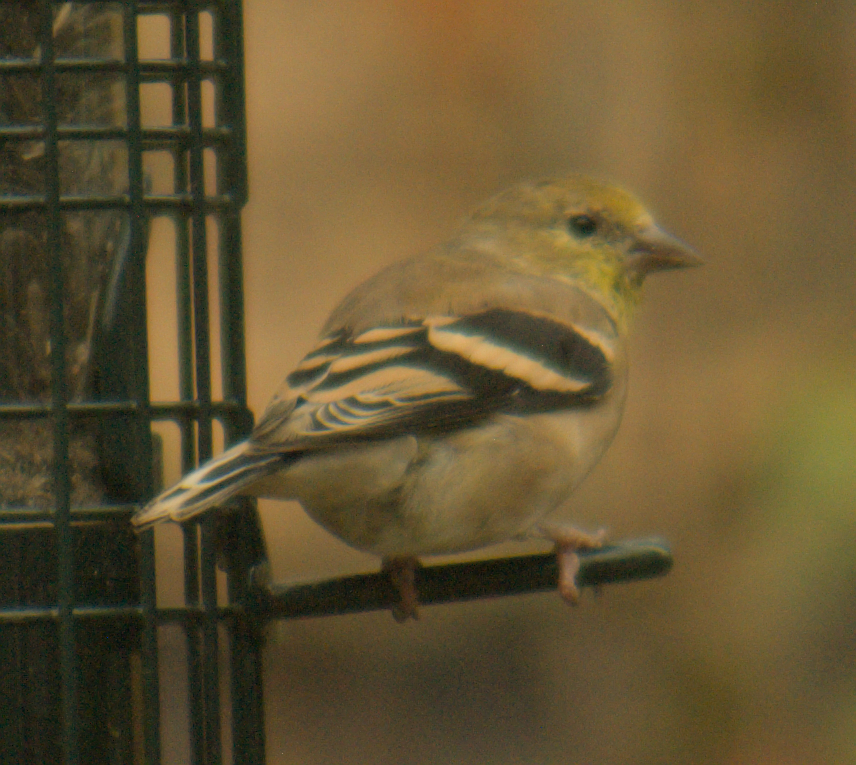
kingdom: Animalia
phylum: Chordata
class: Aves
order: Passeriformes
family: Fringillidae
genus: Spinus
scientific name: Spinus tristis
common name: American goldfinch
